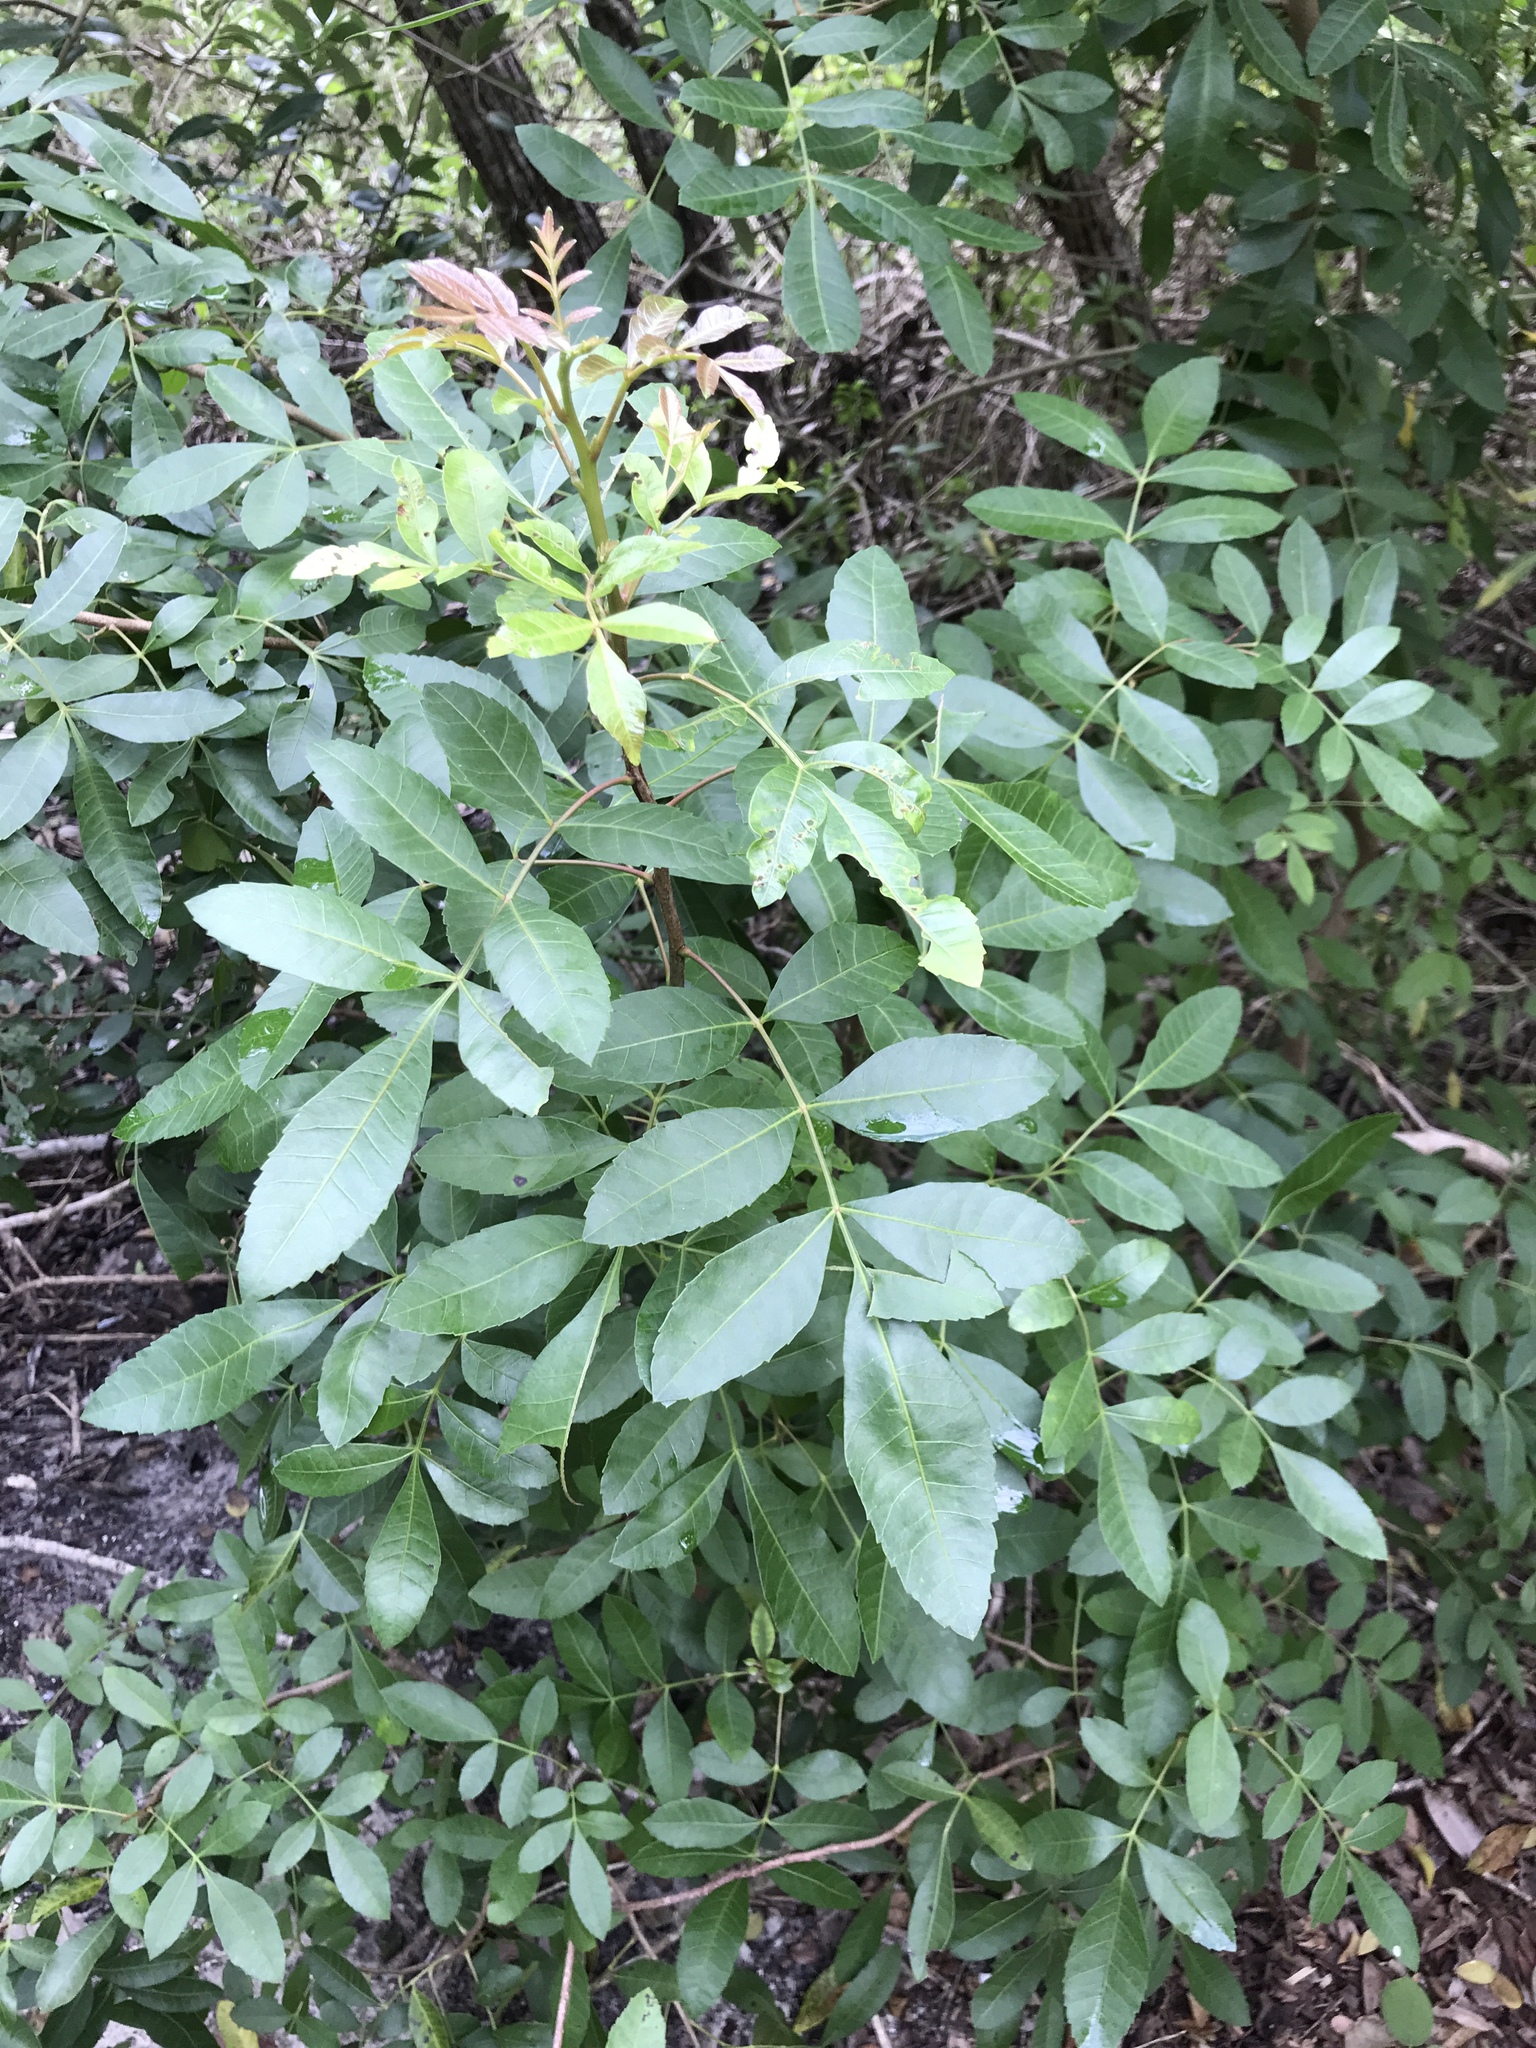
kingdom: Plantae
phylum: Tracheophyta
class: Magnoliopsida
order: Sapindales
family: Anacardiaceae
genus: Schinus
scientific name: Schinus terebinthifolia
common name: Brazilian peppertree
